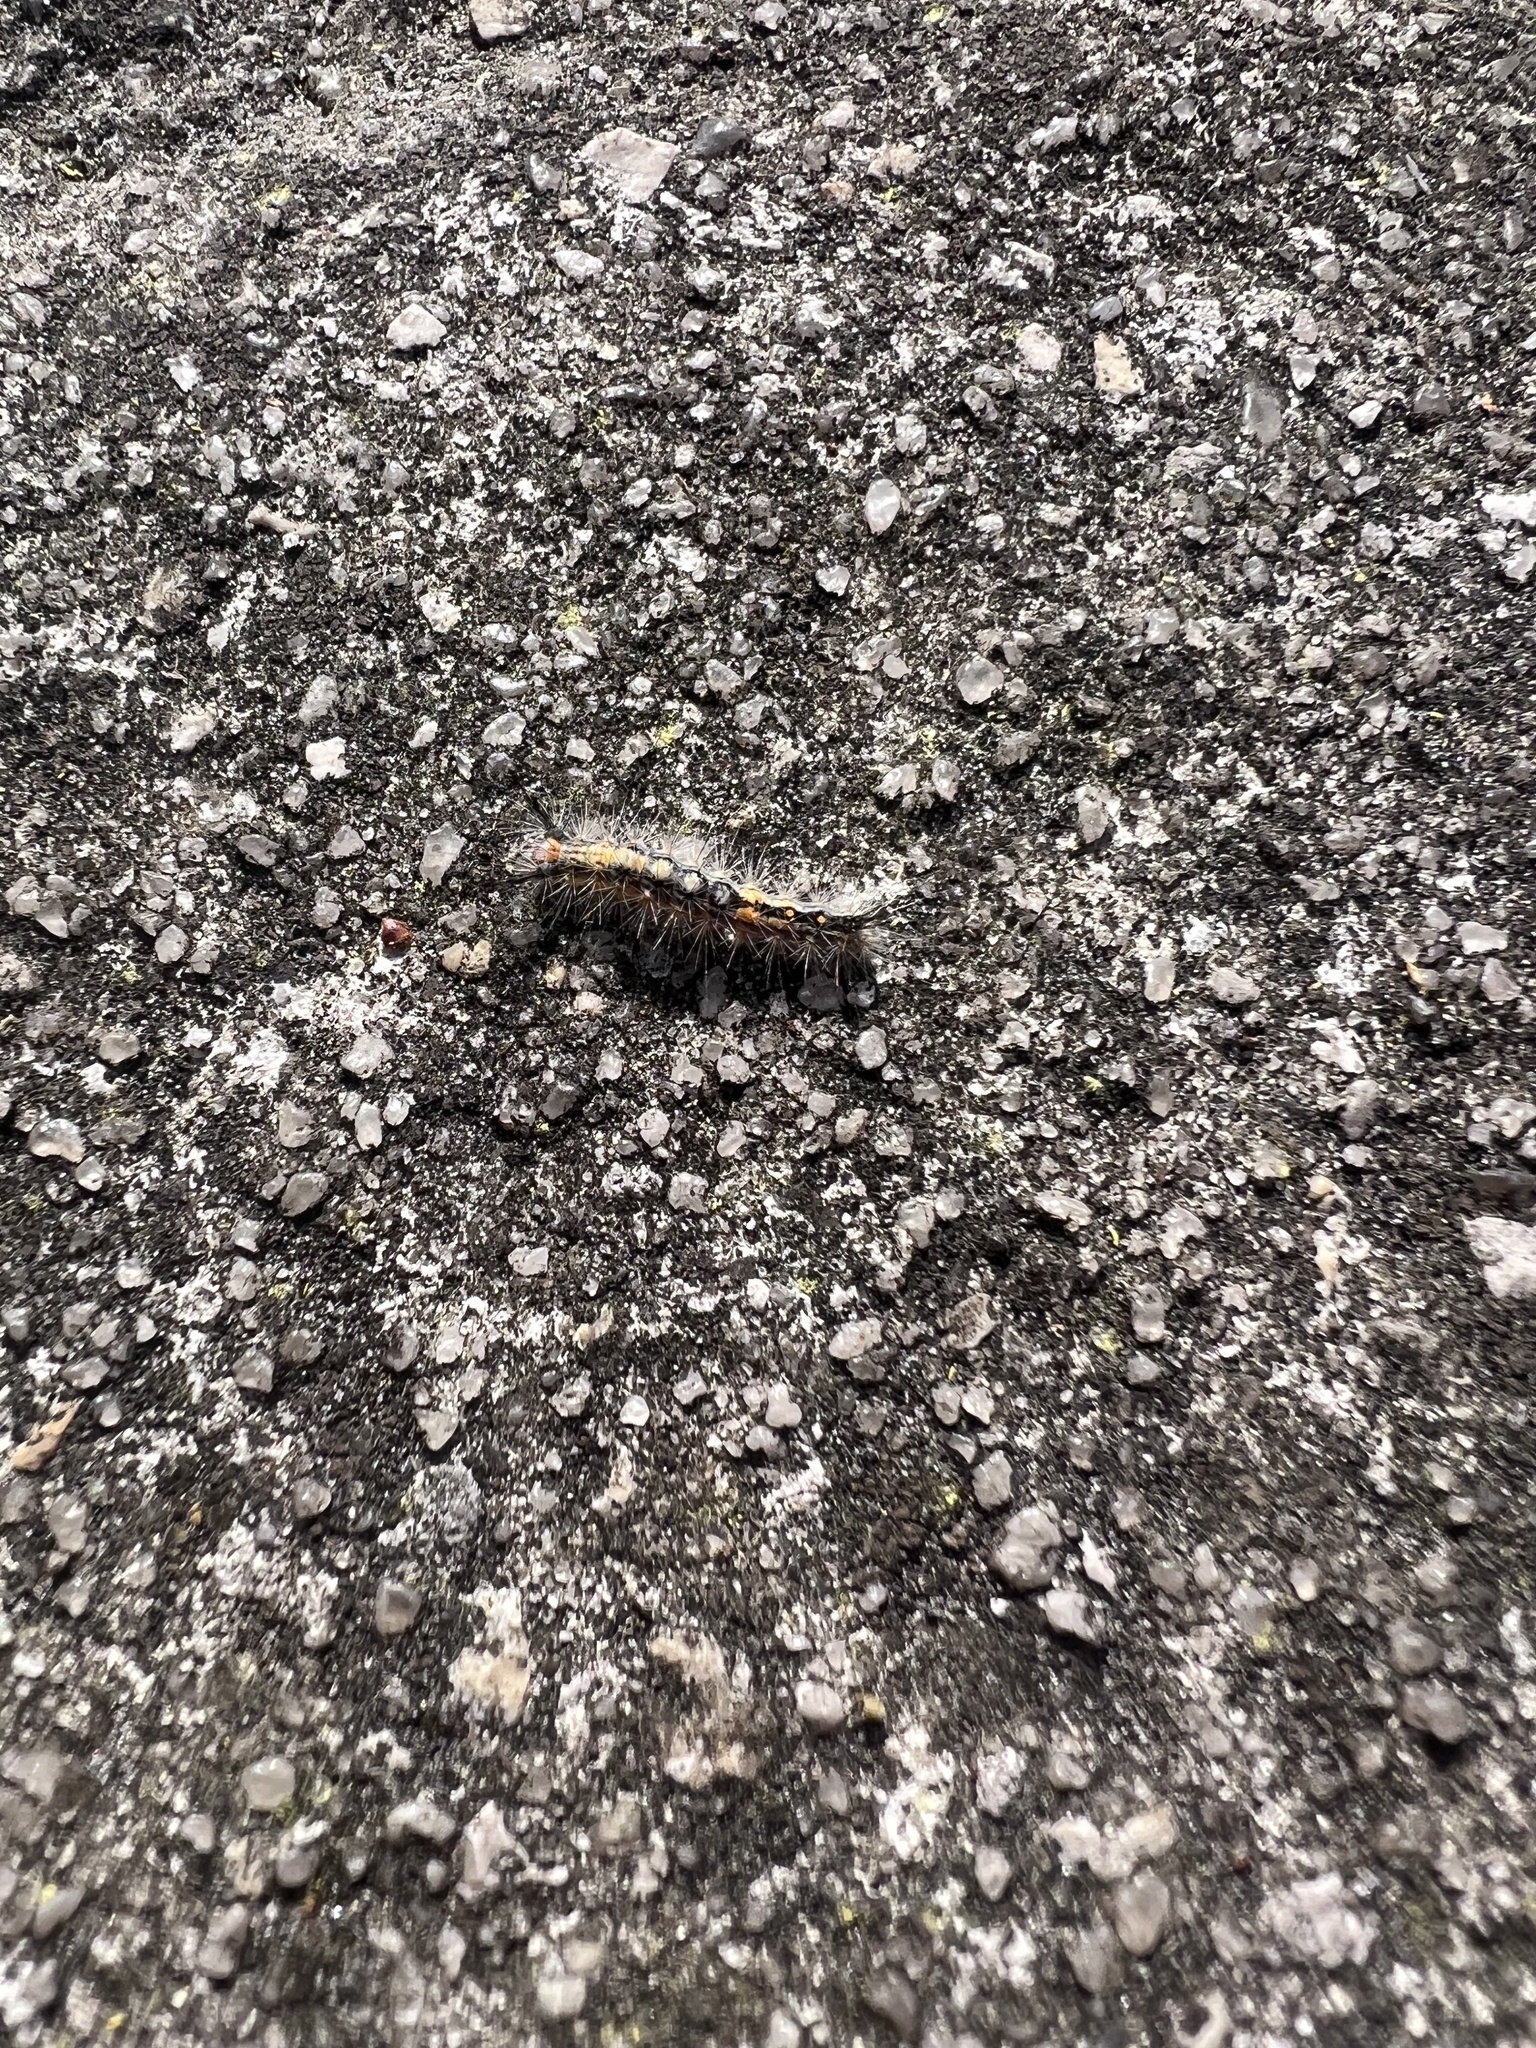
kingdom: Animalia
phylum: Arthropoda
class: Insecta
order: Lepidoptera
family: Erebidae
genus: Orgyia
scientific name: Orgyia detrita
